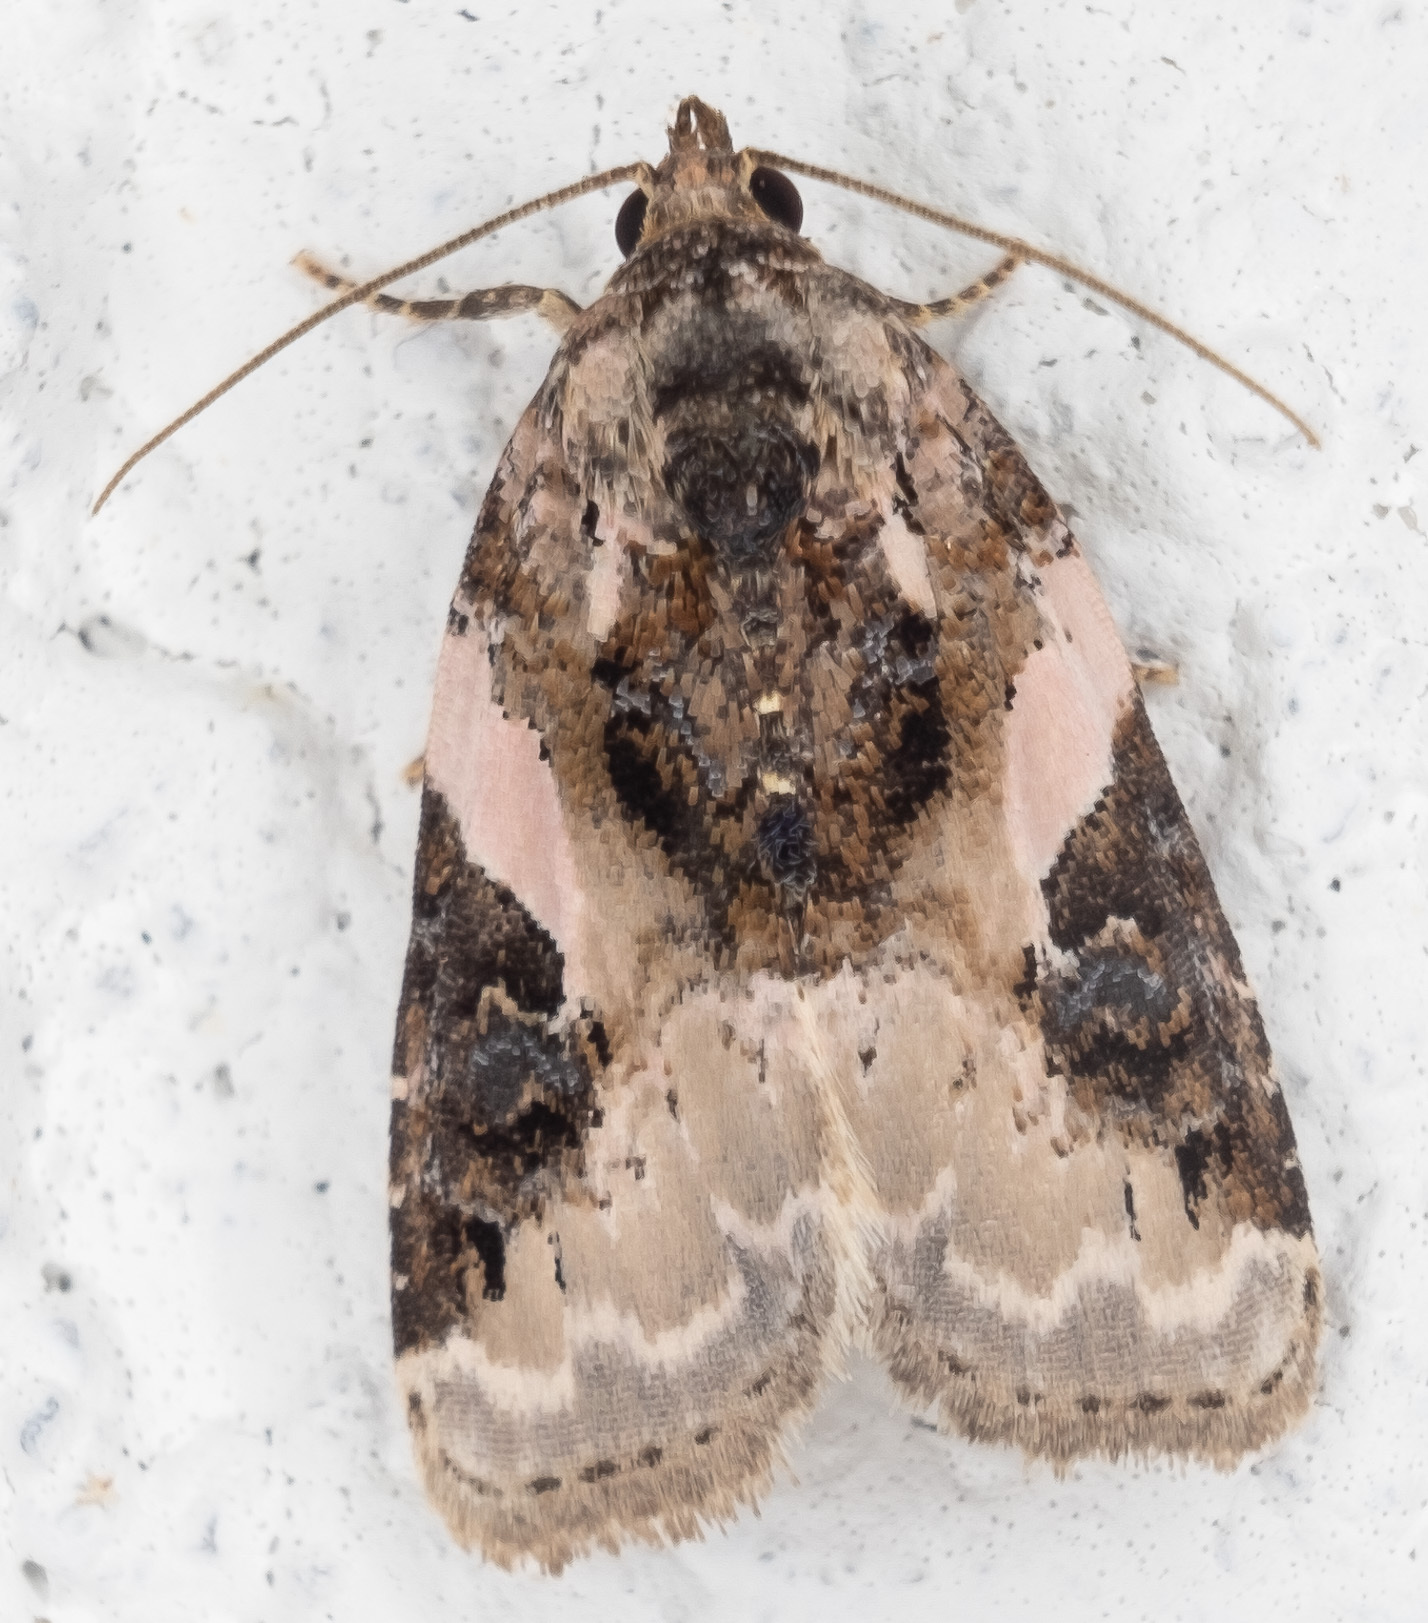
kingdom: Animalia
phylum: Arthropoda
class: Insecta
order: Lepidoptera
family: Noctuidae
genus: Pseudeustrotia
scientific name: Pseudeustrotia carneola
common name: Pink-barred lithacodia moth
